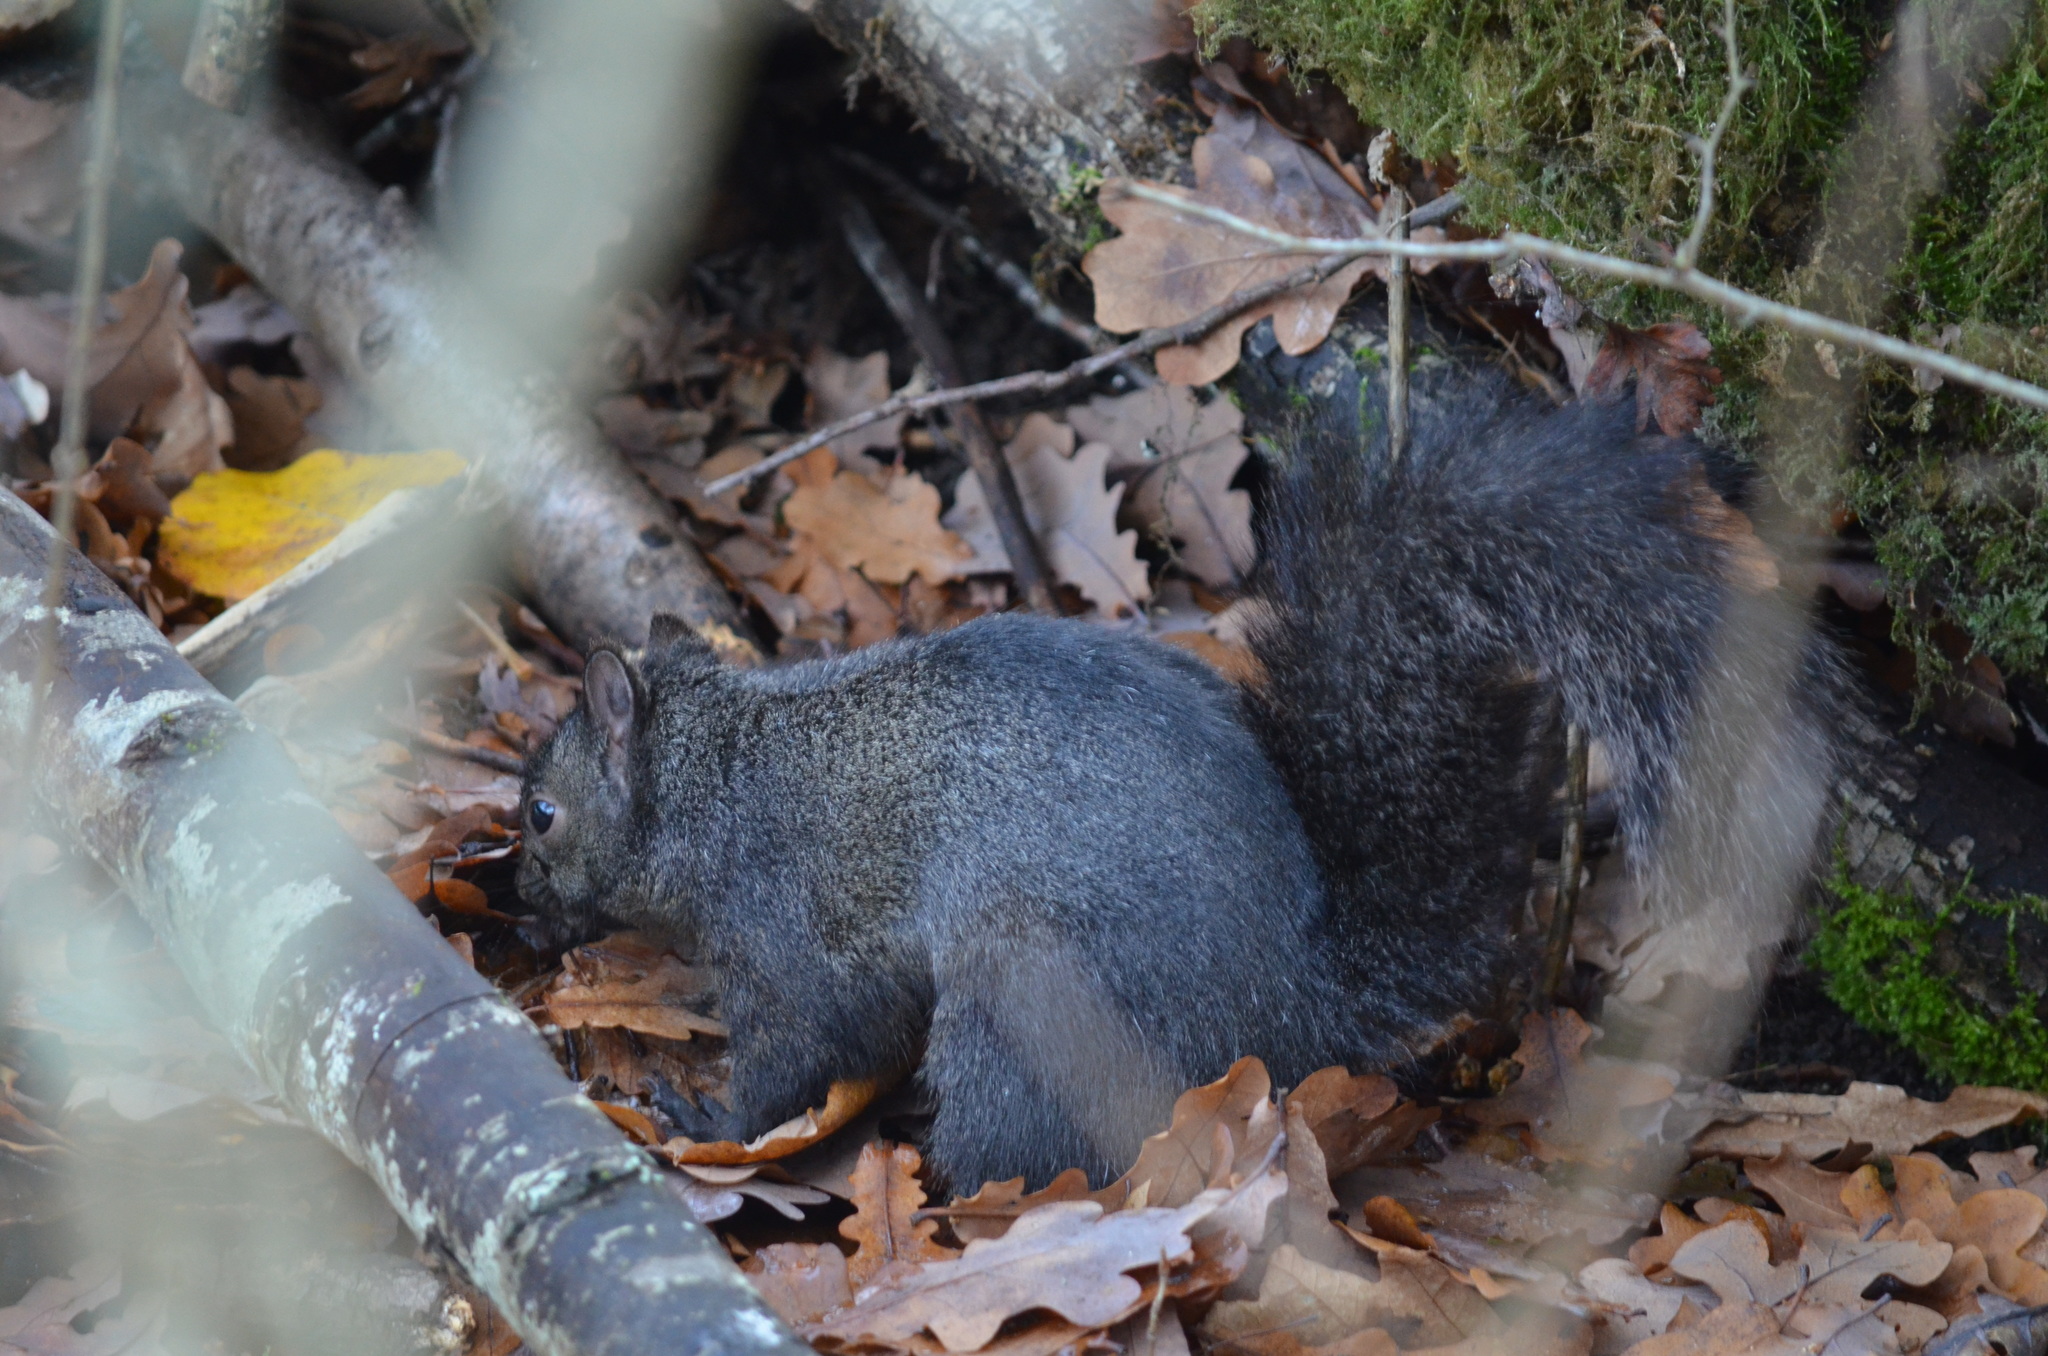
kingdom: Animalia
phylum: Chordata
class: Mammalia
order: Rodentia
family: Sciuridae
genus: Sciurus
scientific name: Sciurus carolinensis
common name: Eastern gray squirrel
